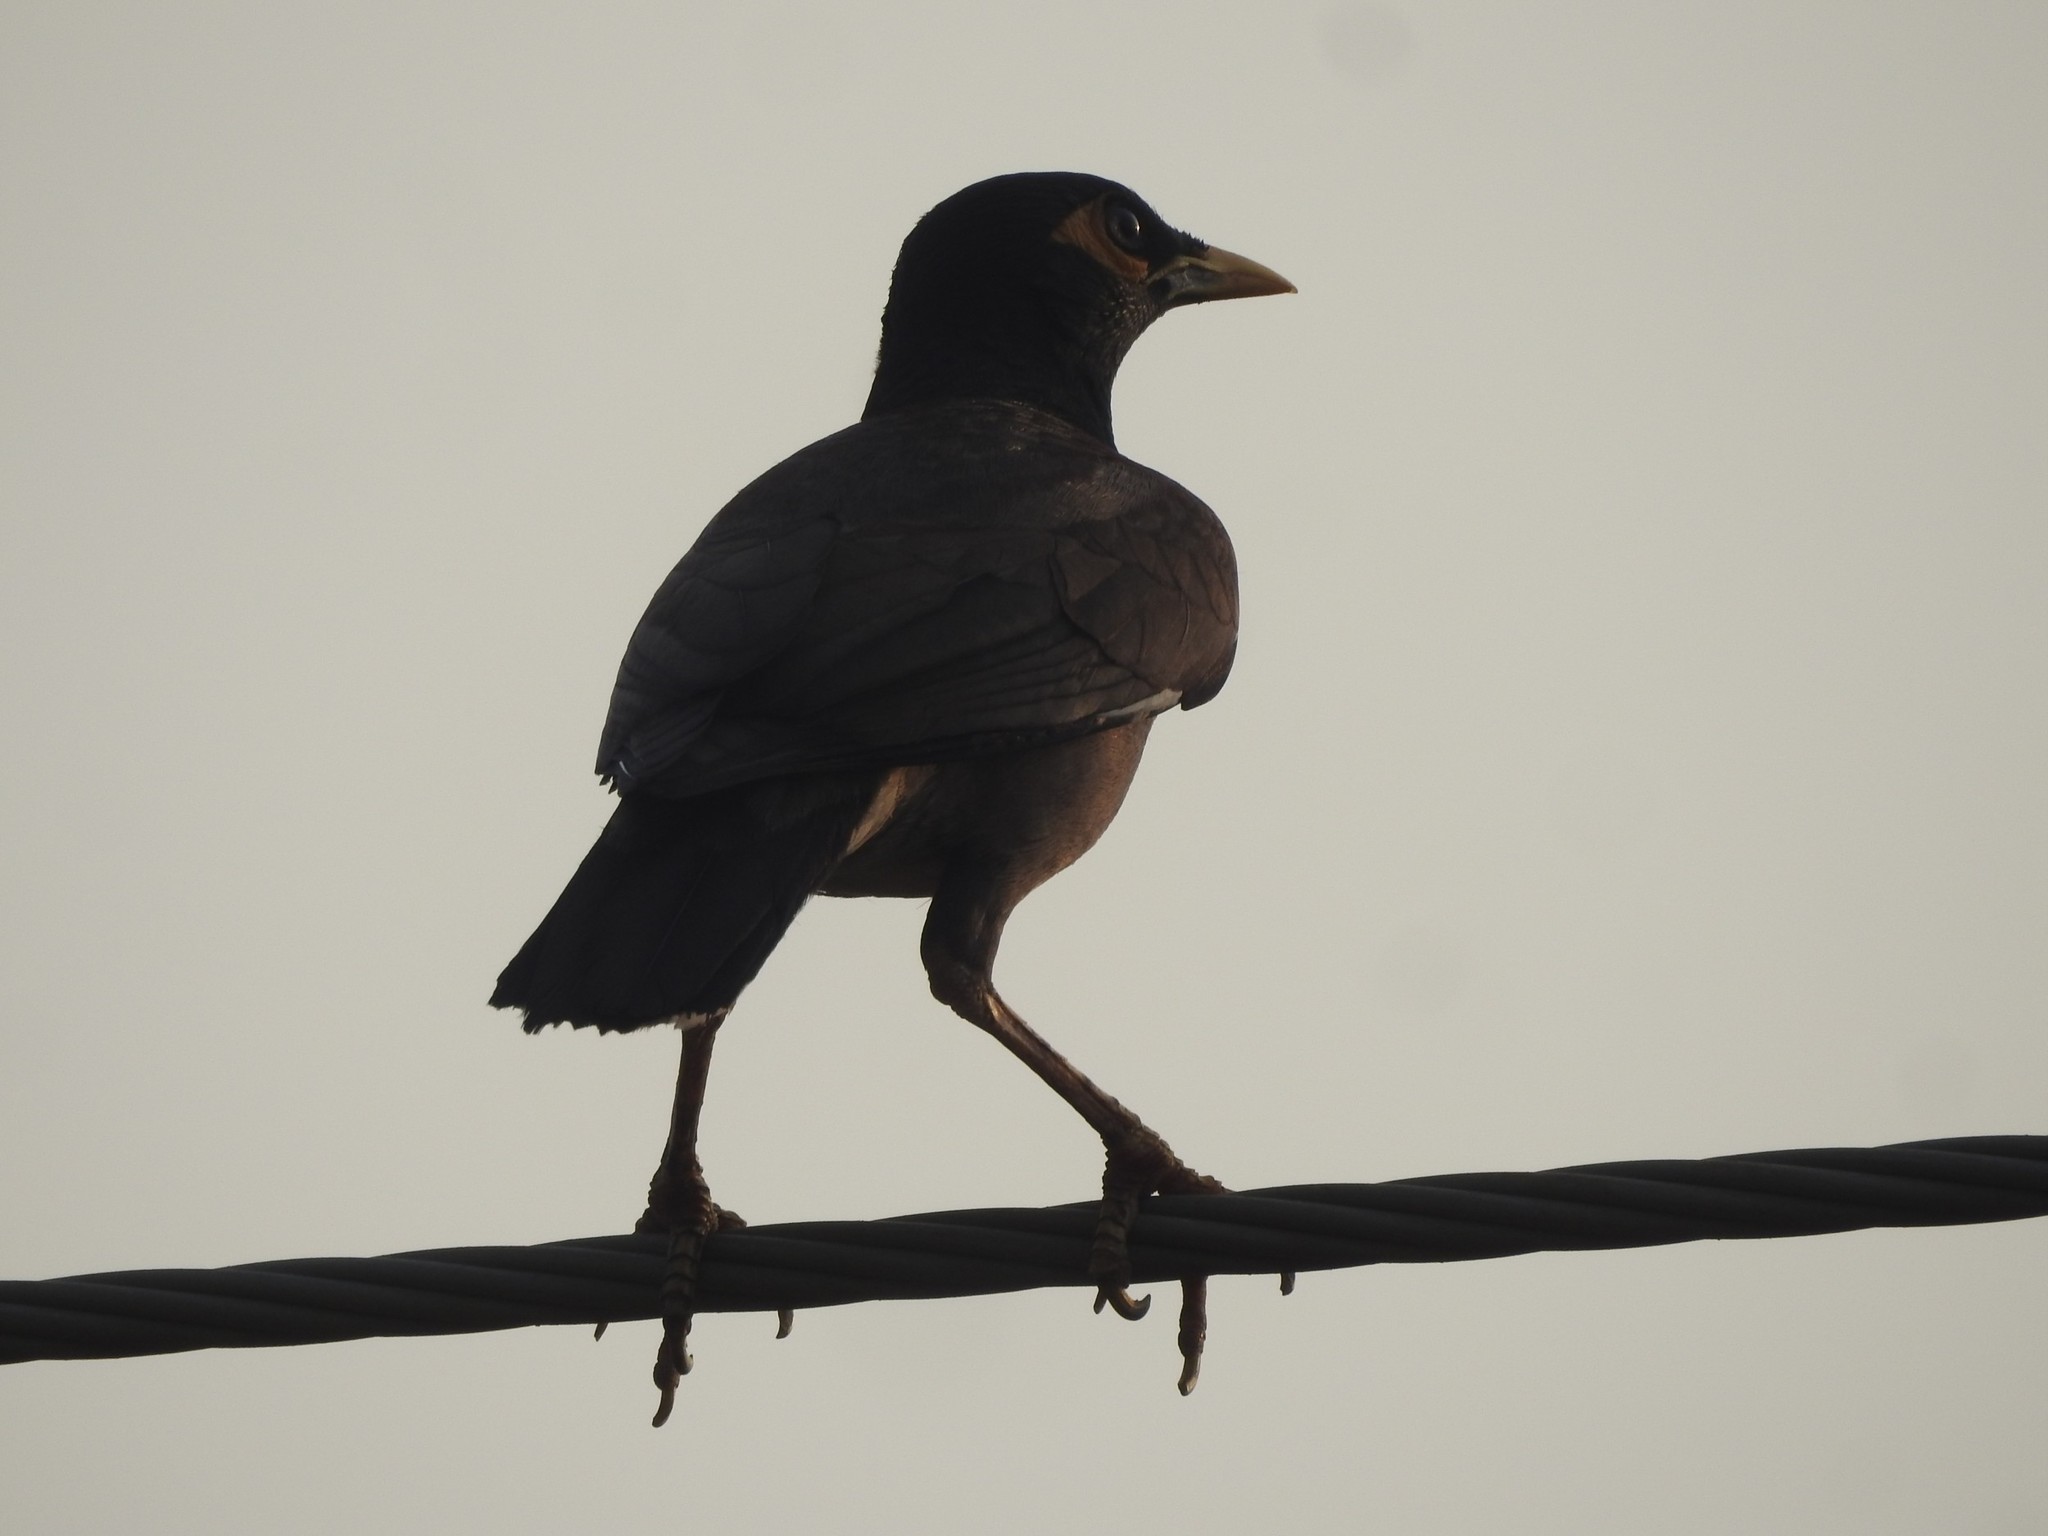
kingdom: Animalia
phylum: Chordata
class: Aves
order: Passeriformes
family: Sturnidae
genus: Acridotheres
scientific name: Acridotheres tristis
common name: Common myna
